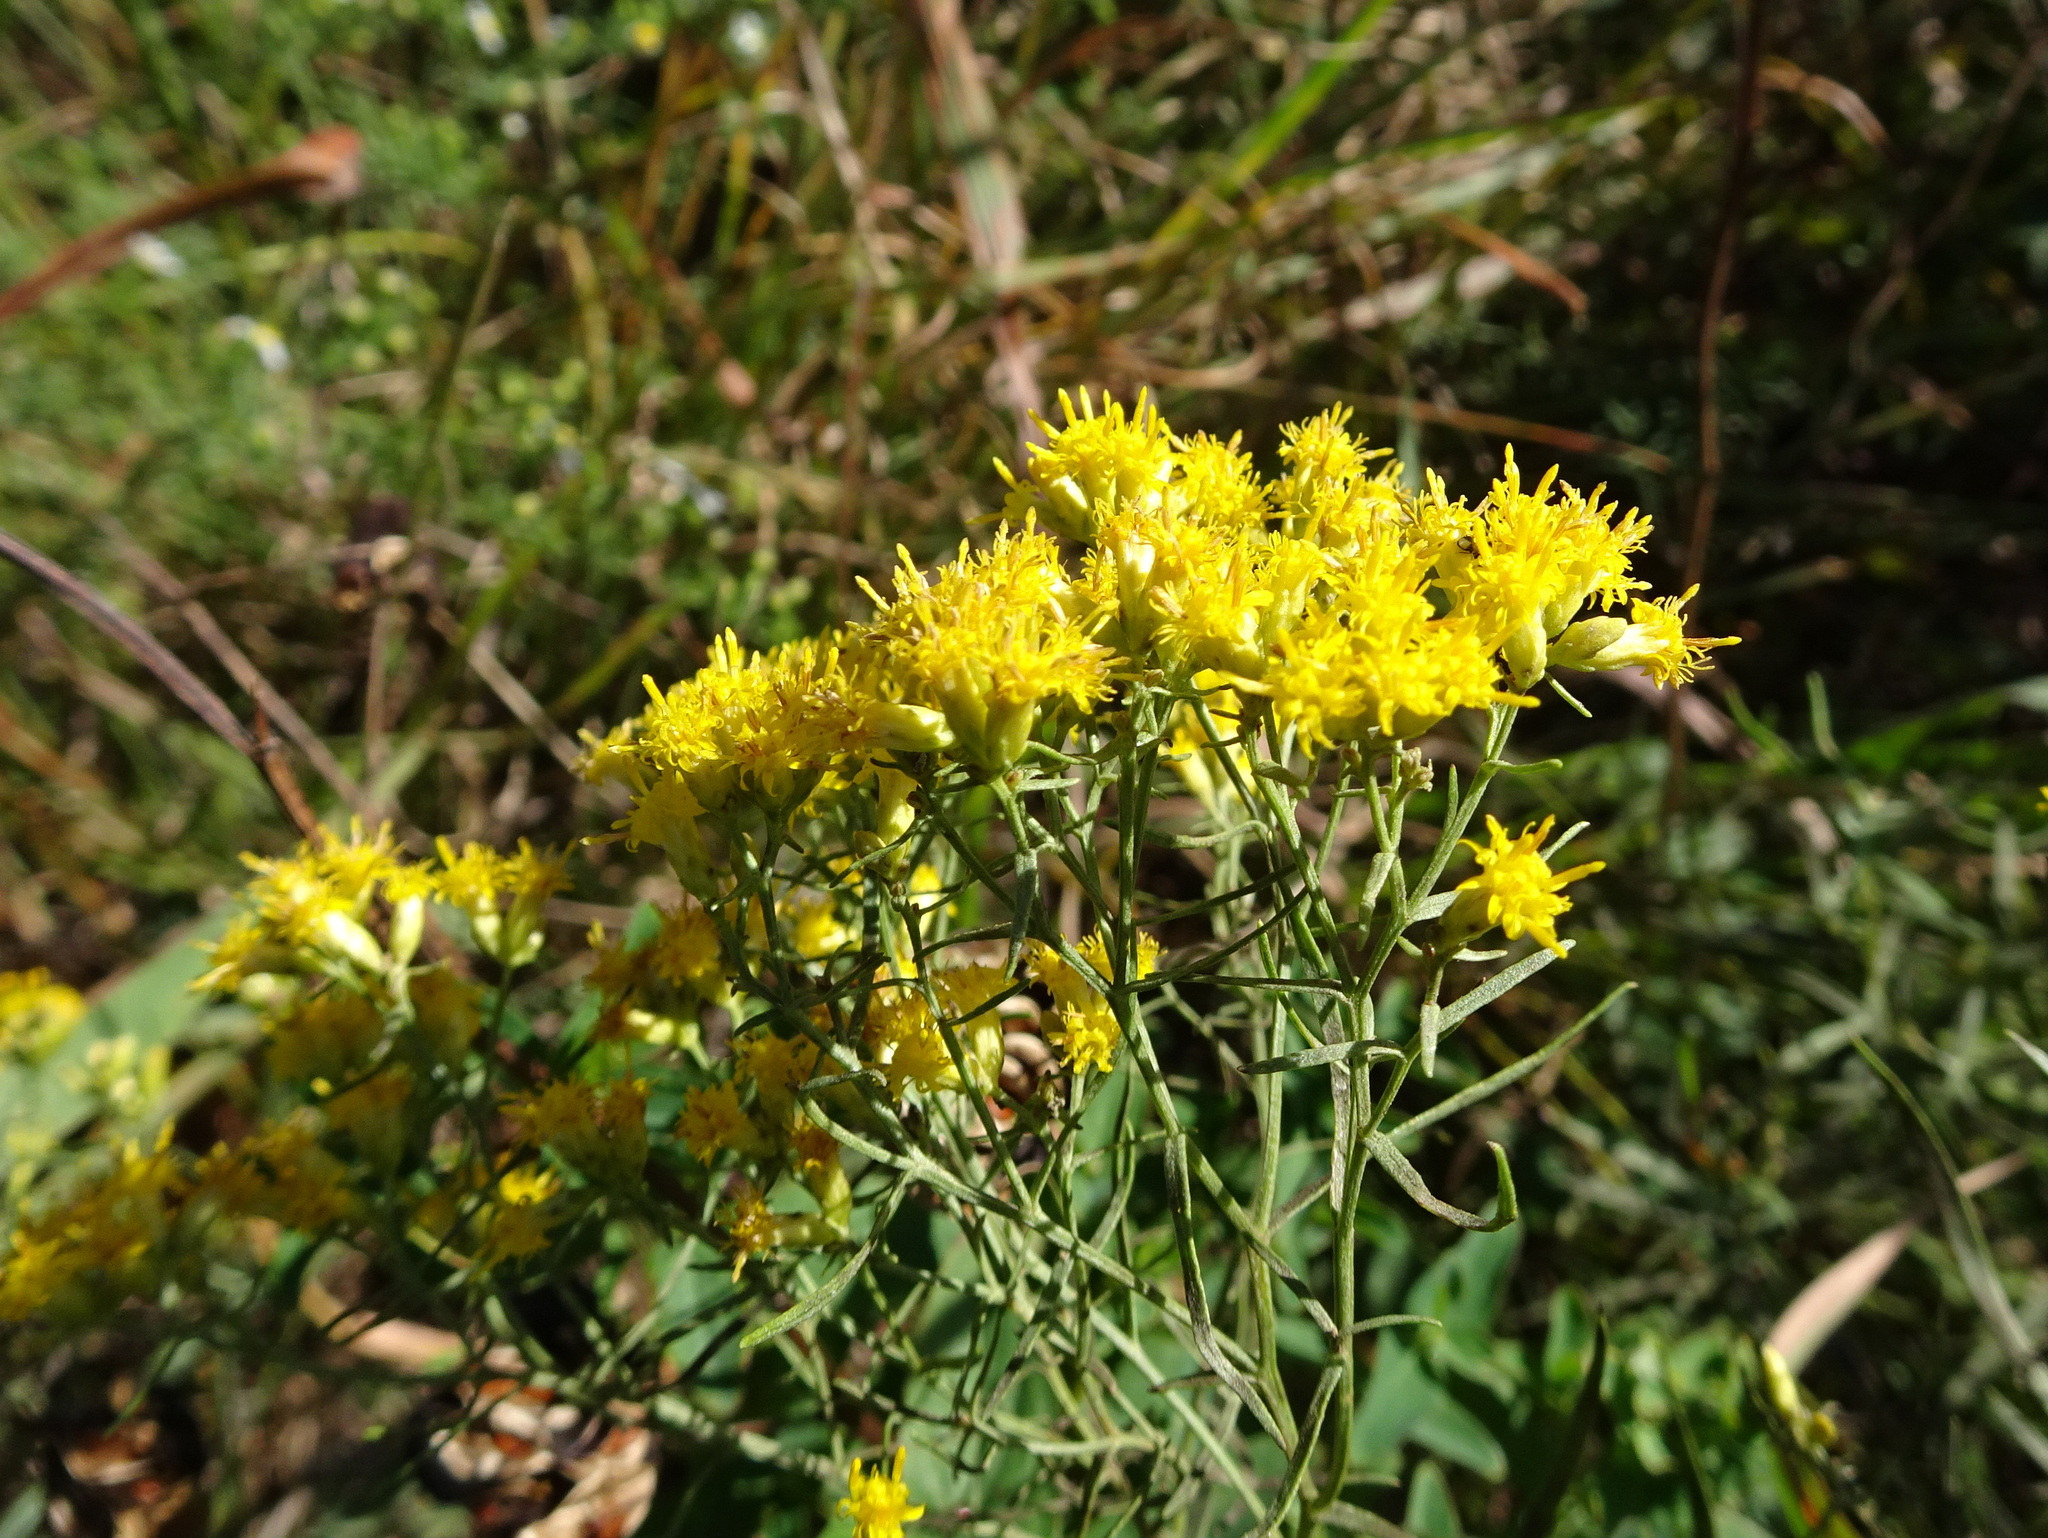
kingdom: Plantae
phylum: Tracheophyta
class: Magnoliopsida
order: Asterales
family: Asteraceae
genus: Euthamia
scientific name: Euthamia gymnospermoides
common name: Great plains goldentop
